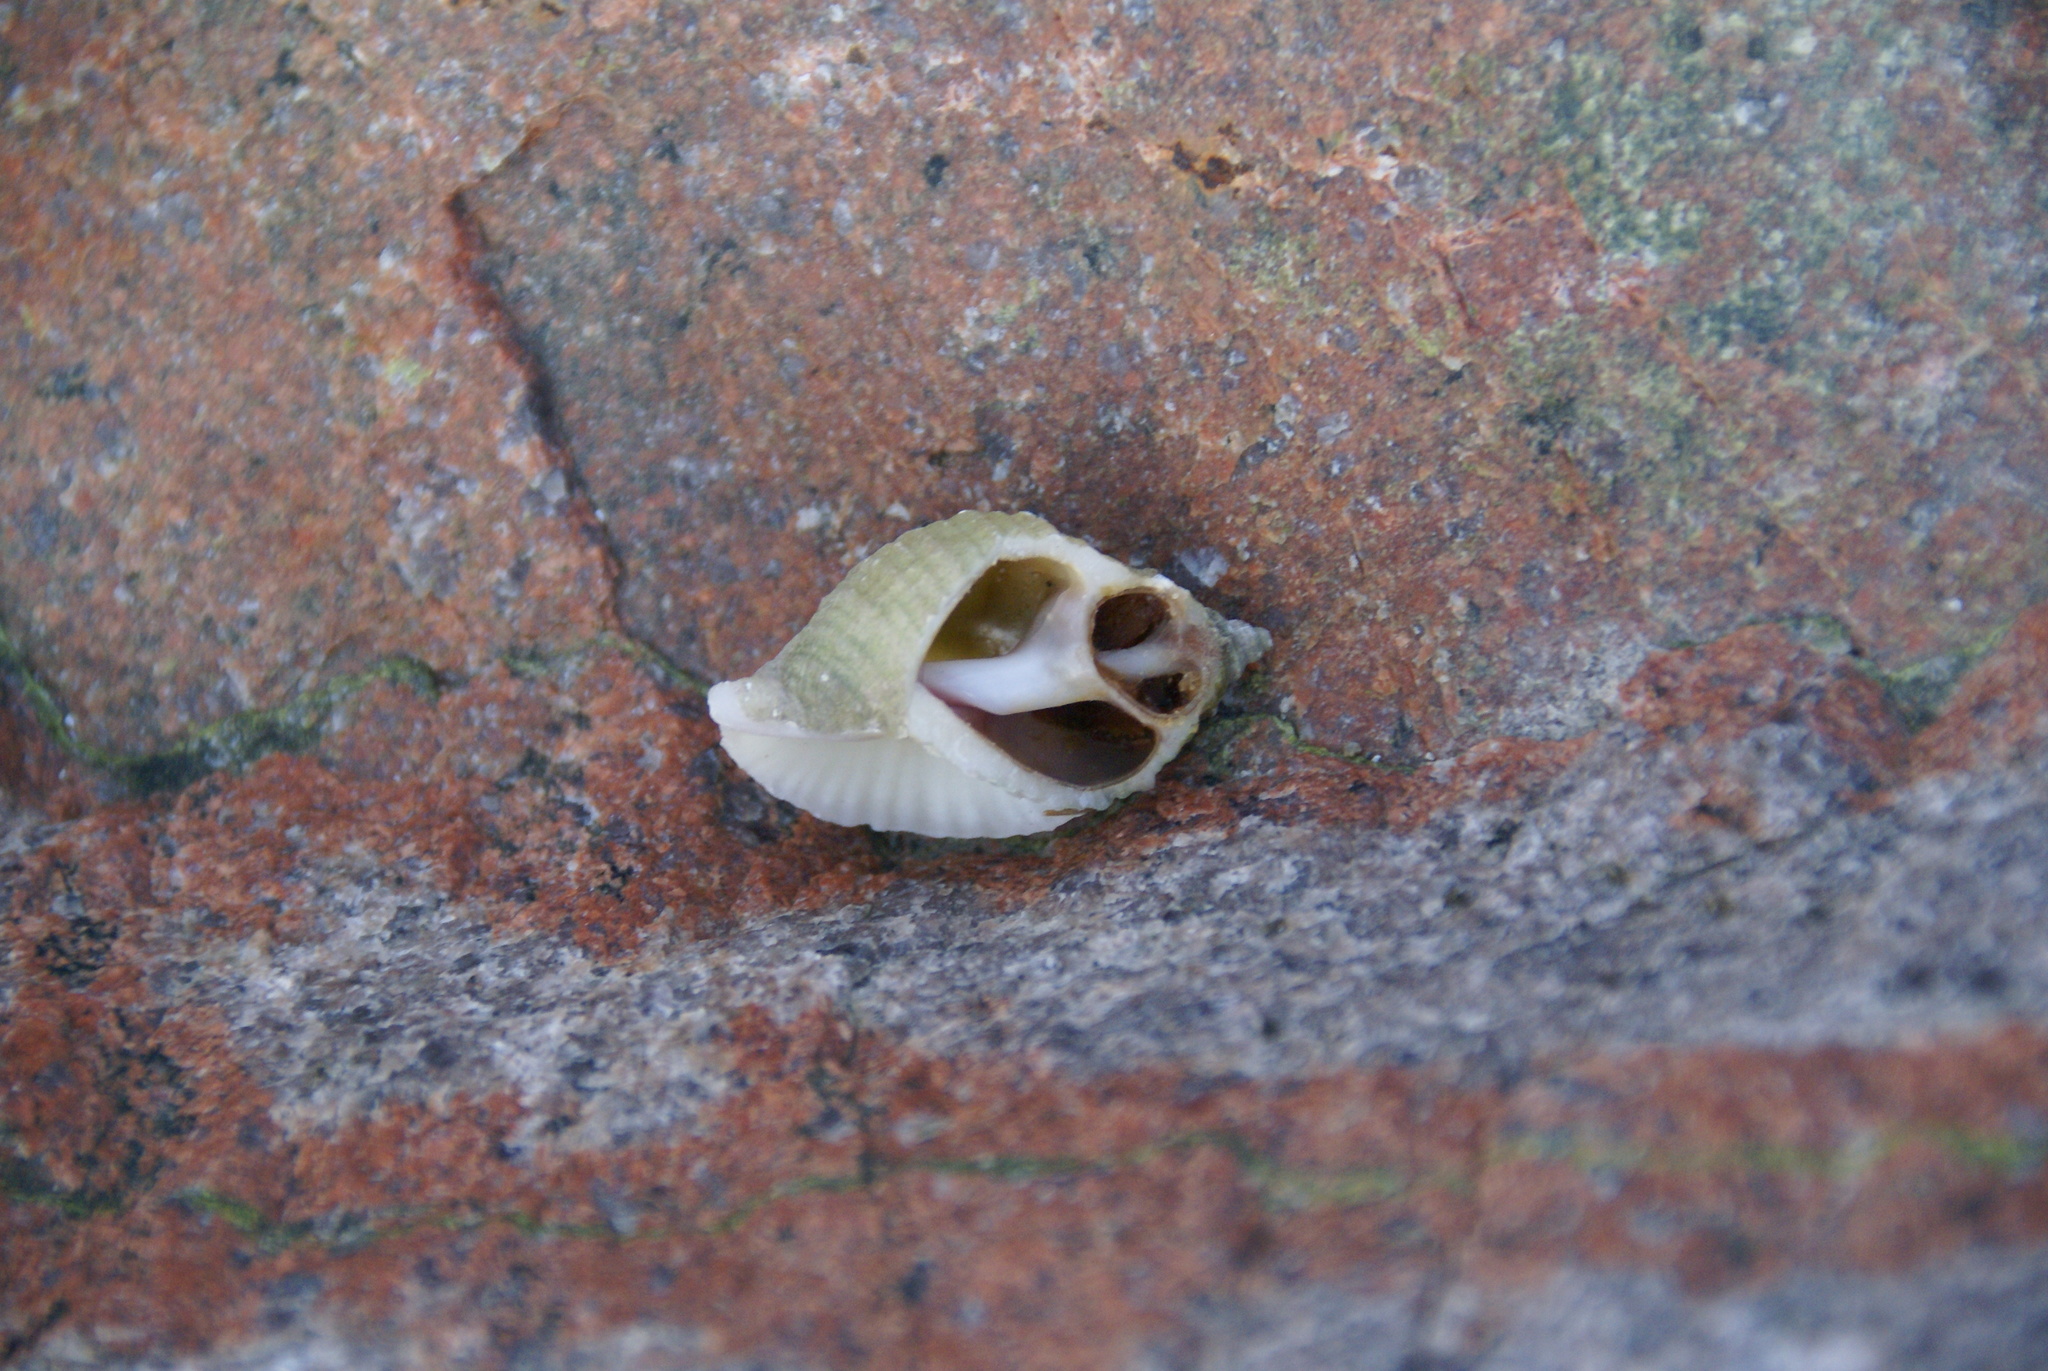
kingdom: Animalia
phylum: Mollusca
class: Gastropoda
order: Neogastropoda
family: Muricidae
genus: Nucella
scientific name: Nucella lapillus
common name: Dog whelk
